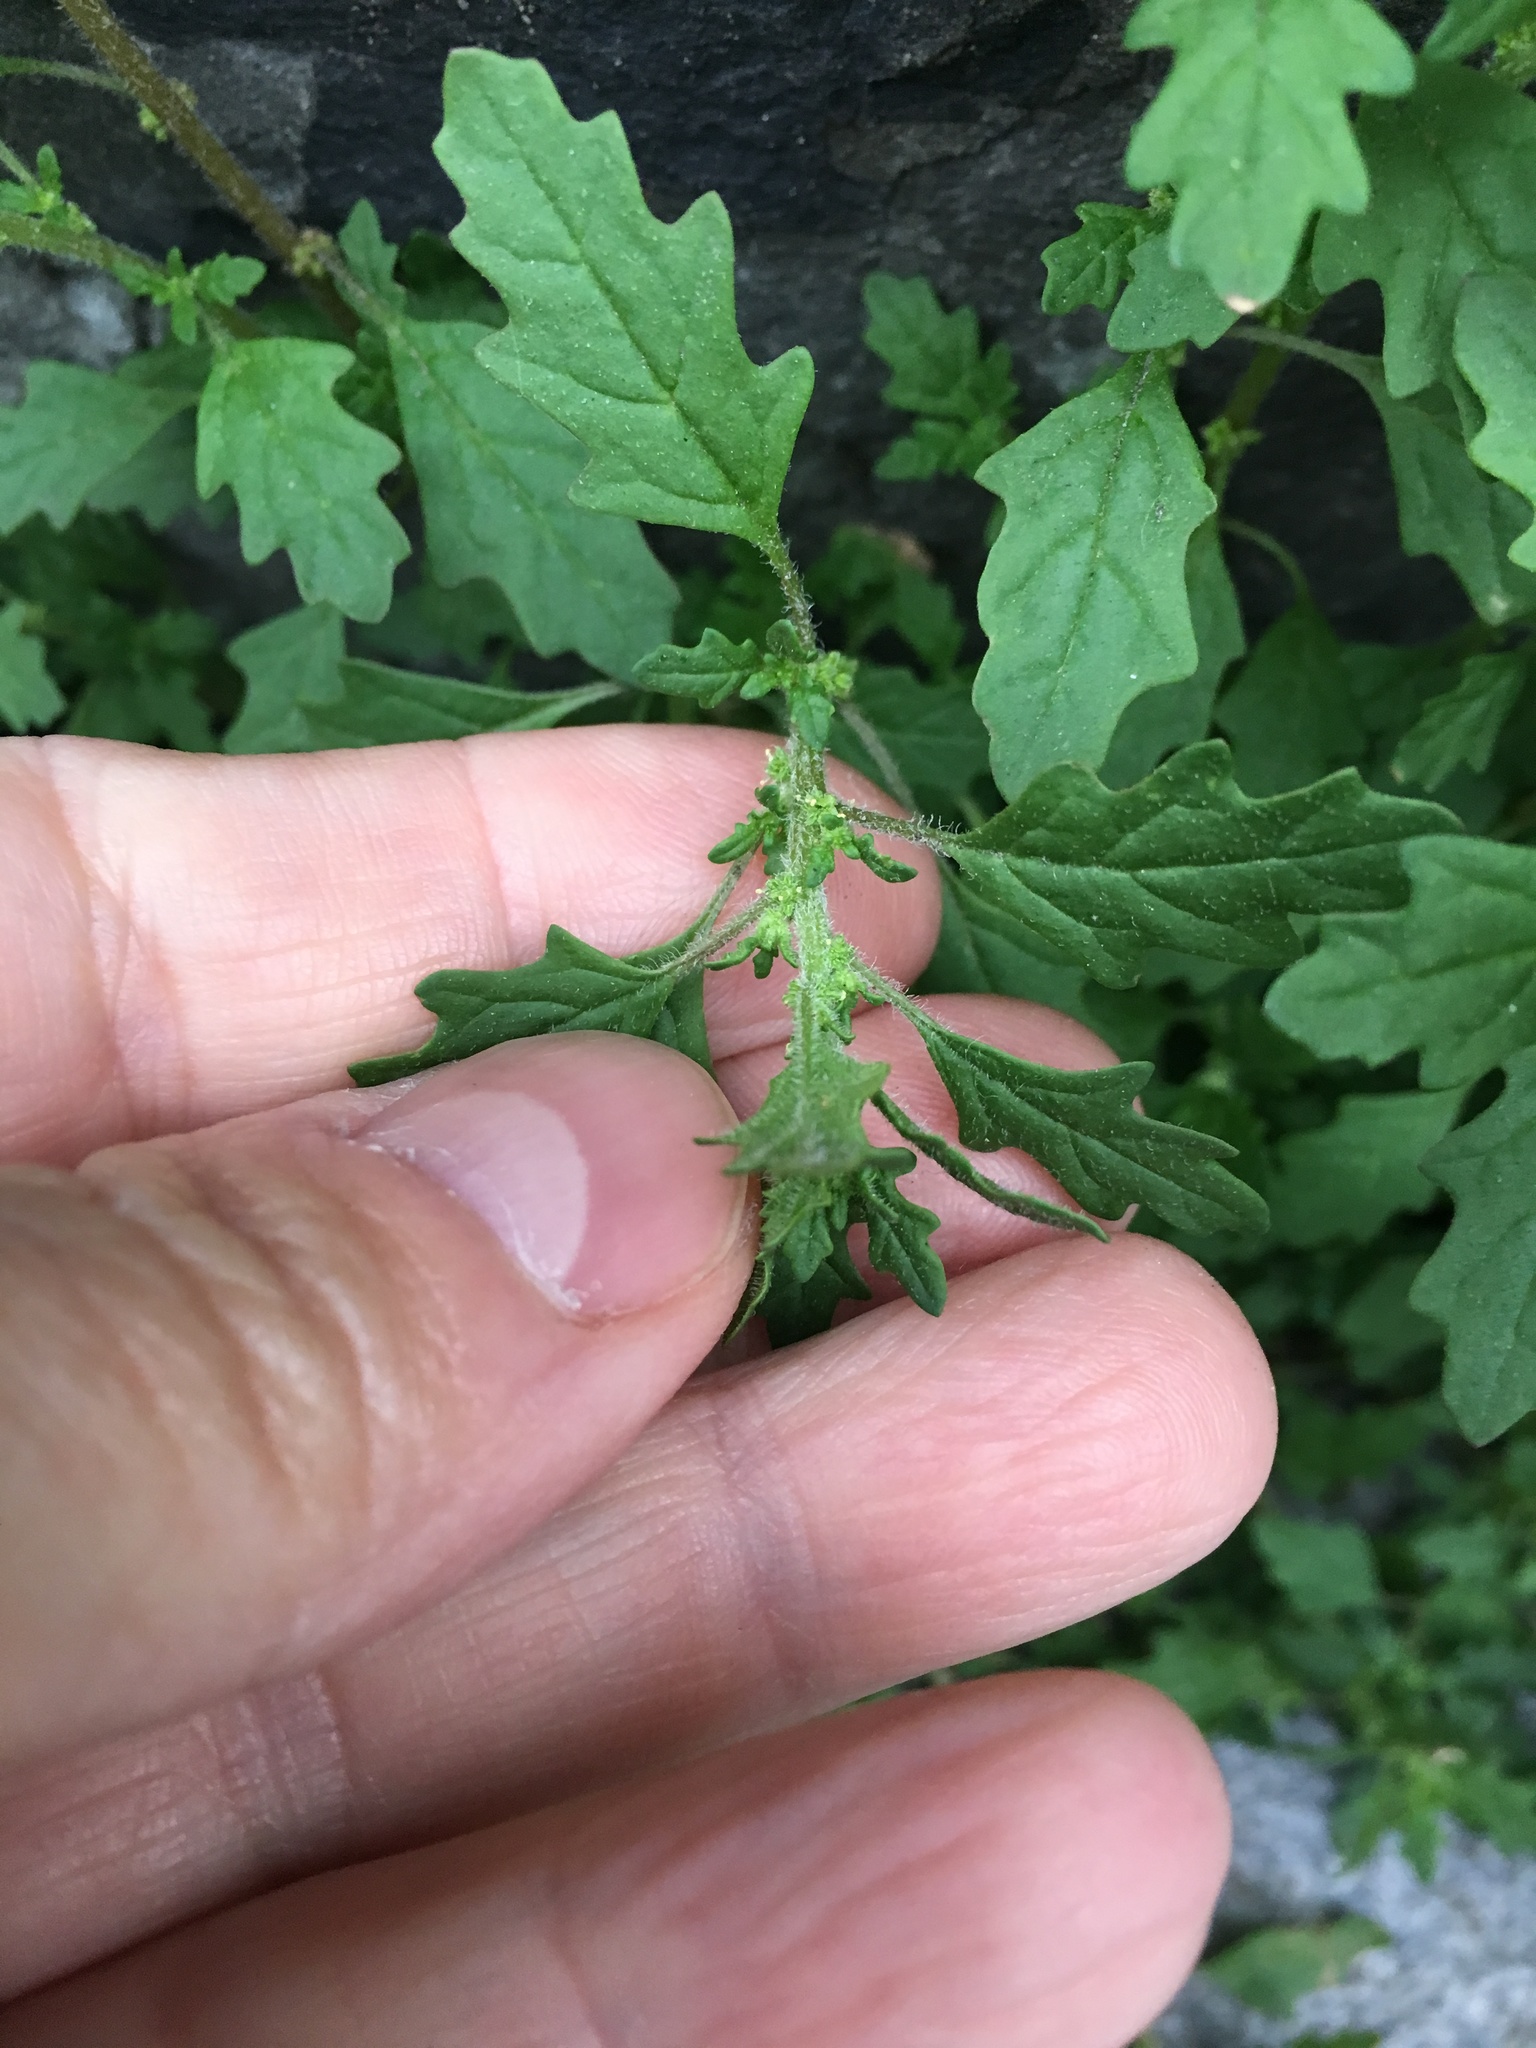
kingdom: Plantae
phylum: Tracheophyta
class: Magnoliopsida
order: Caryophyllales
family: Amaranthaceae
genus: Dysphania
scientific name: Dysphania pumilio
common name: Clammy goosefoot
